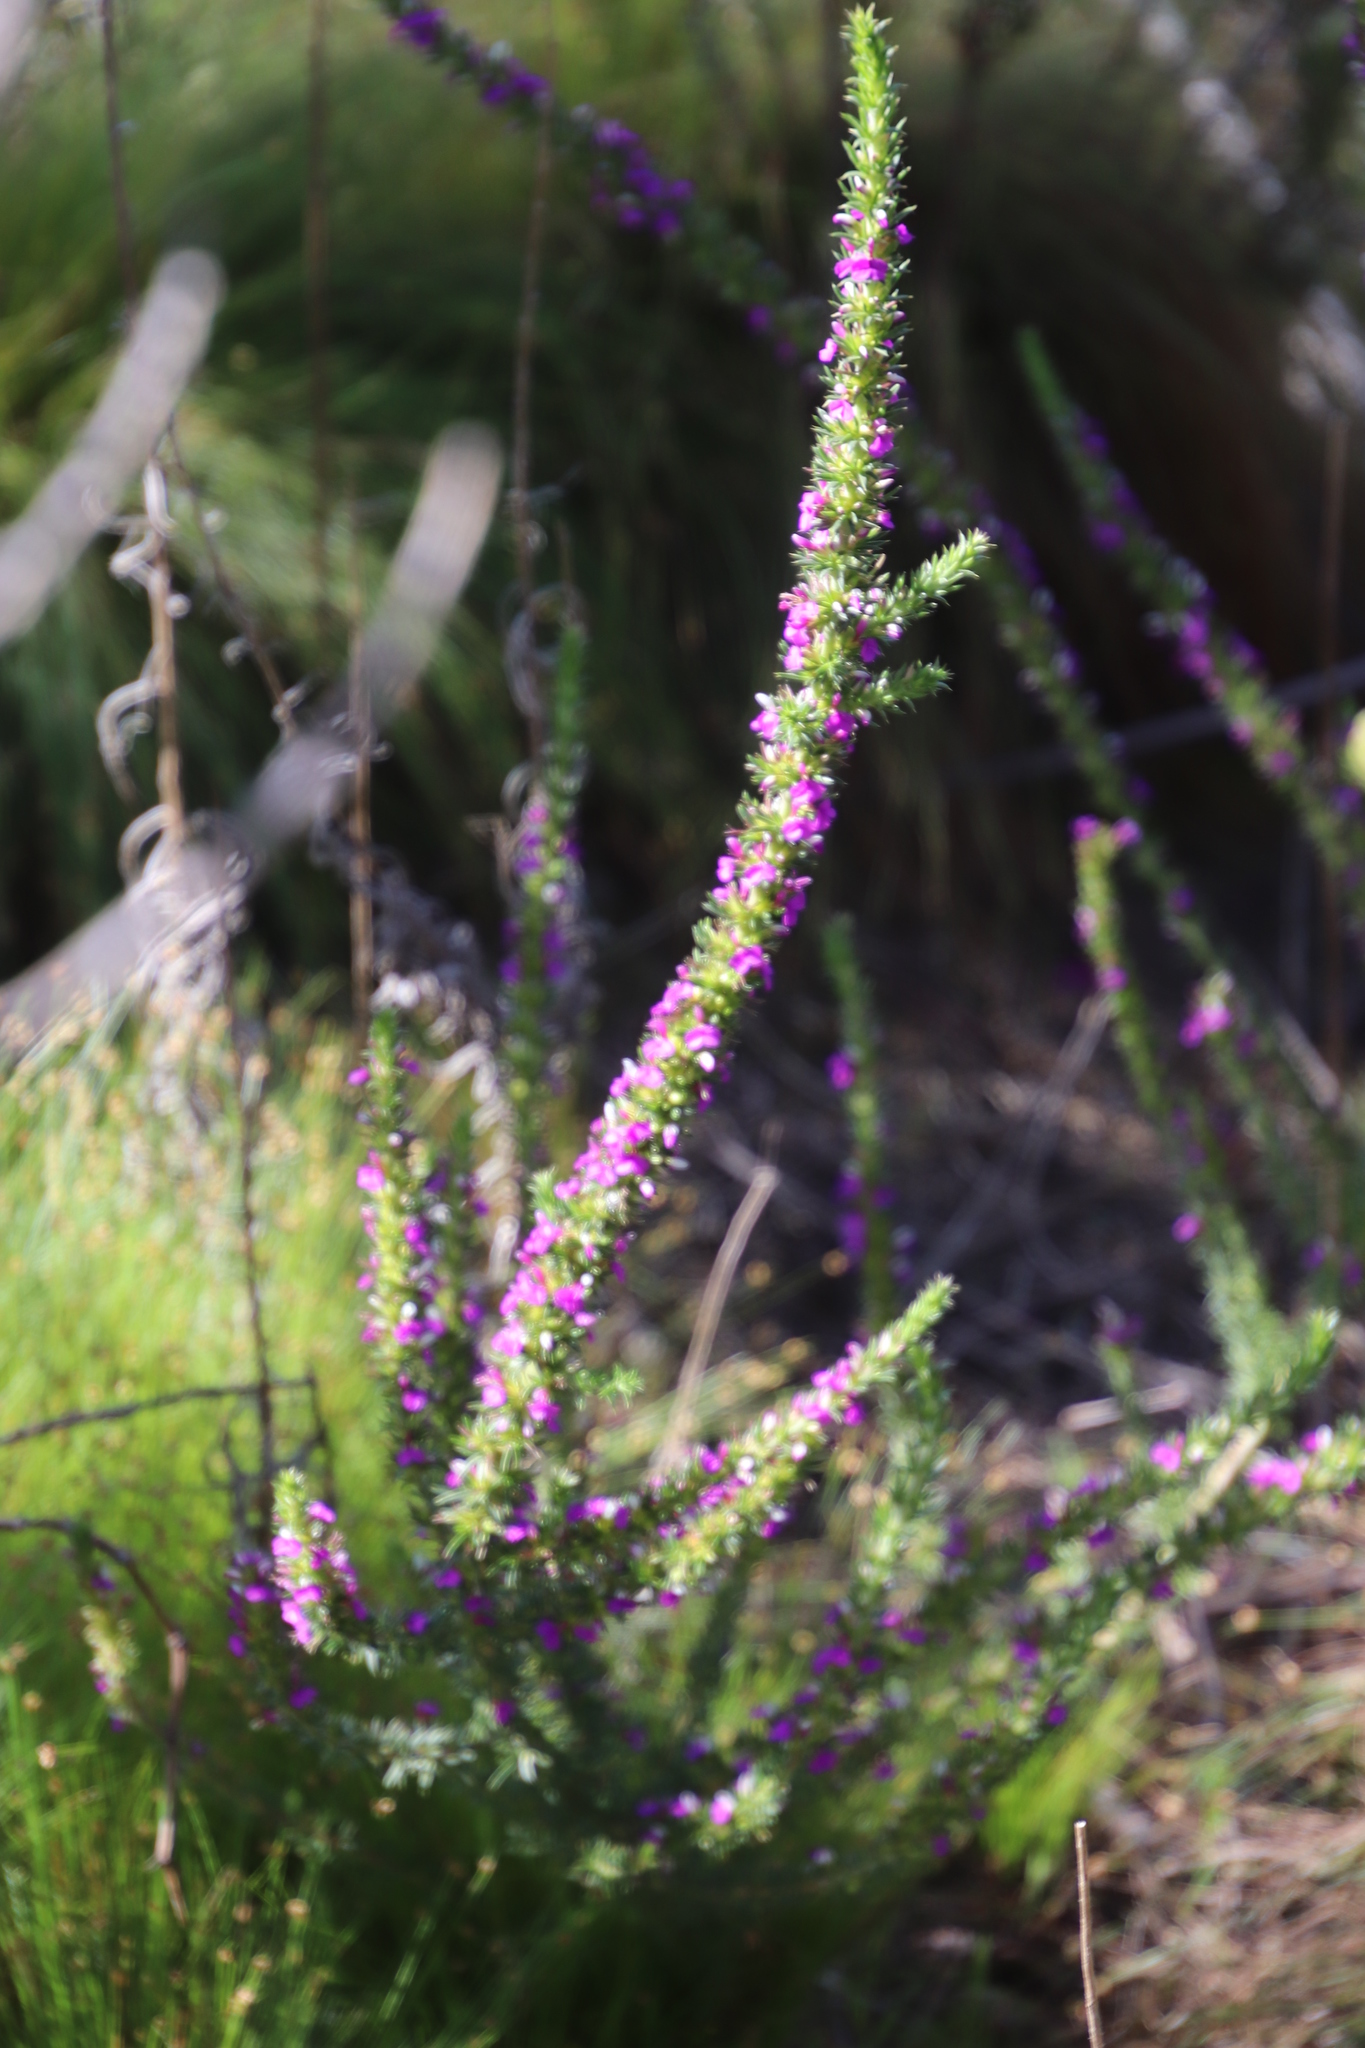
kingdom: Plantae
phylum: Tracheophyta
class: Magnoliopsida
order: Fabales
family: Polygalaceae
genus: Muraltia
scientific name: Muraltia heisteria
